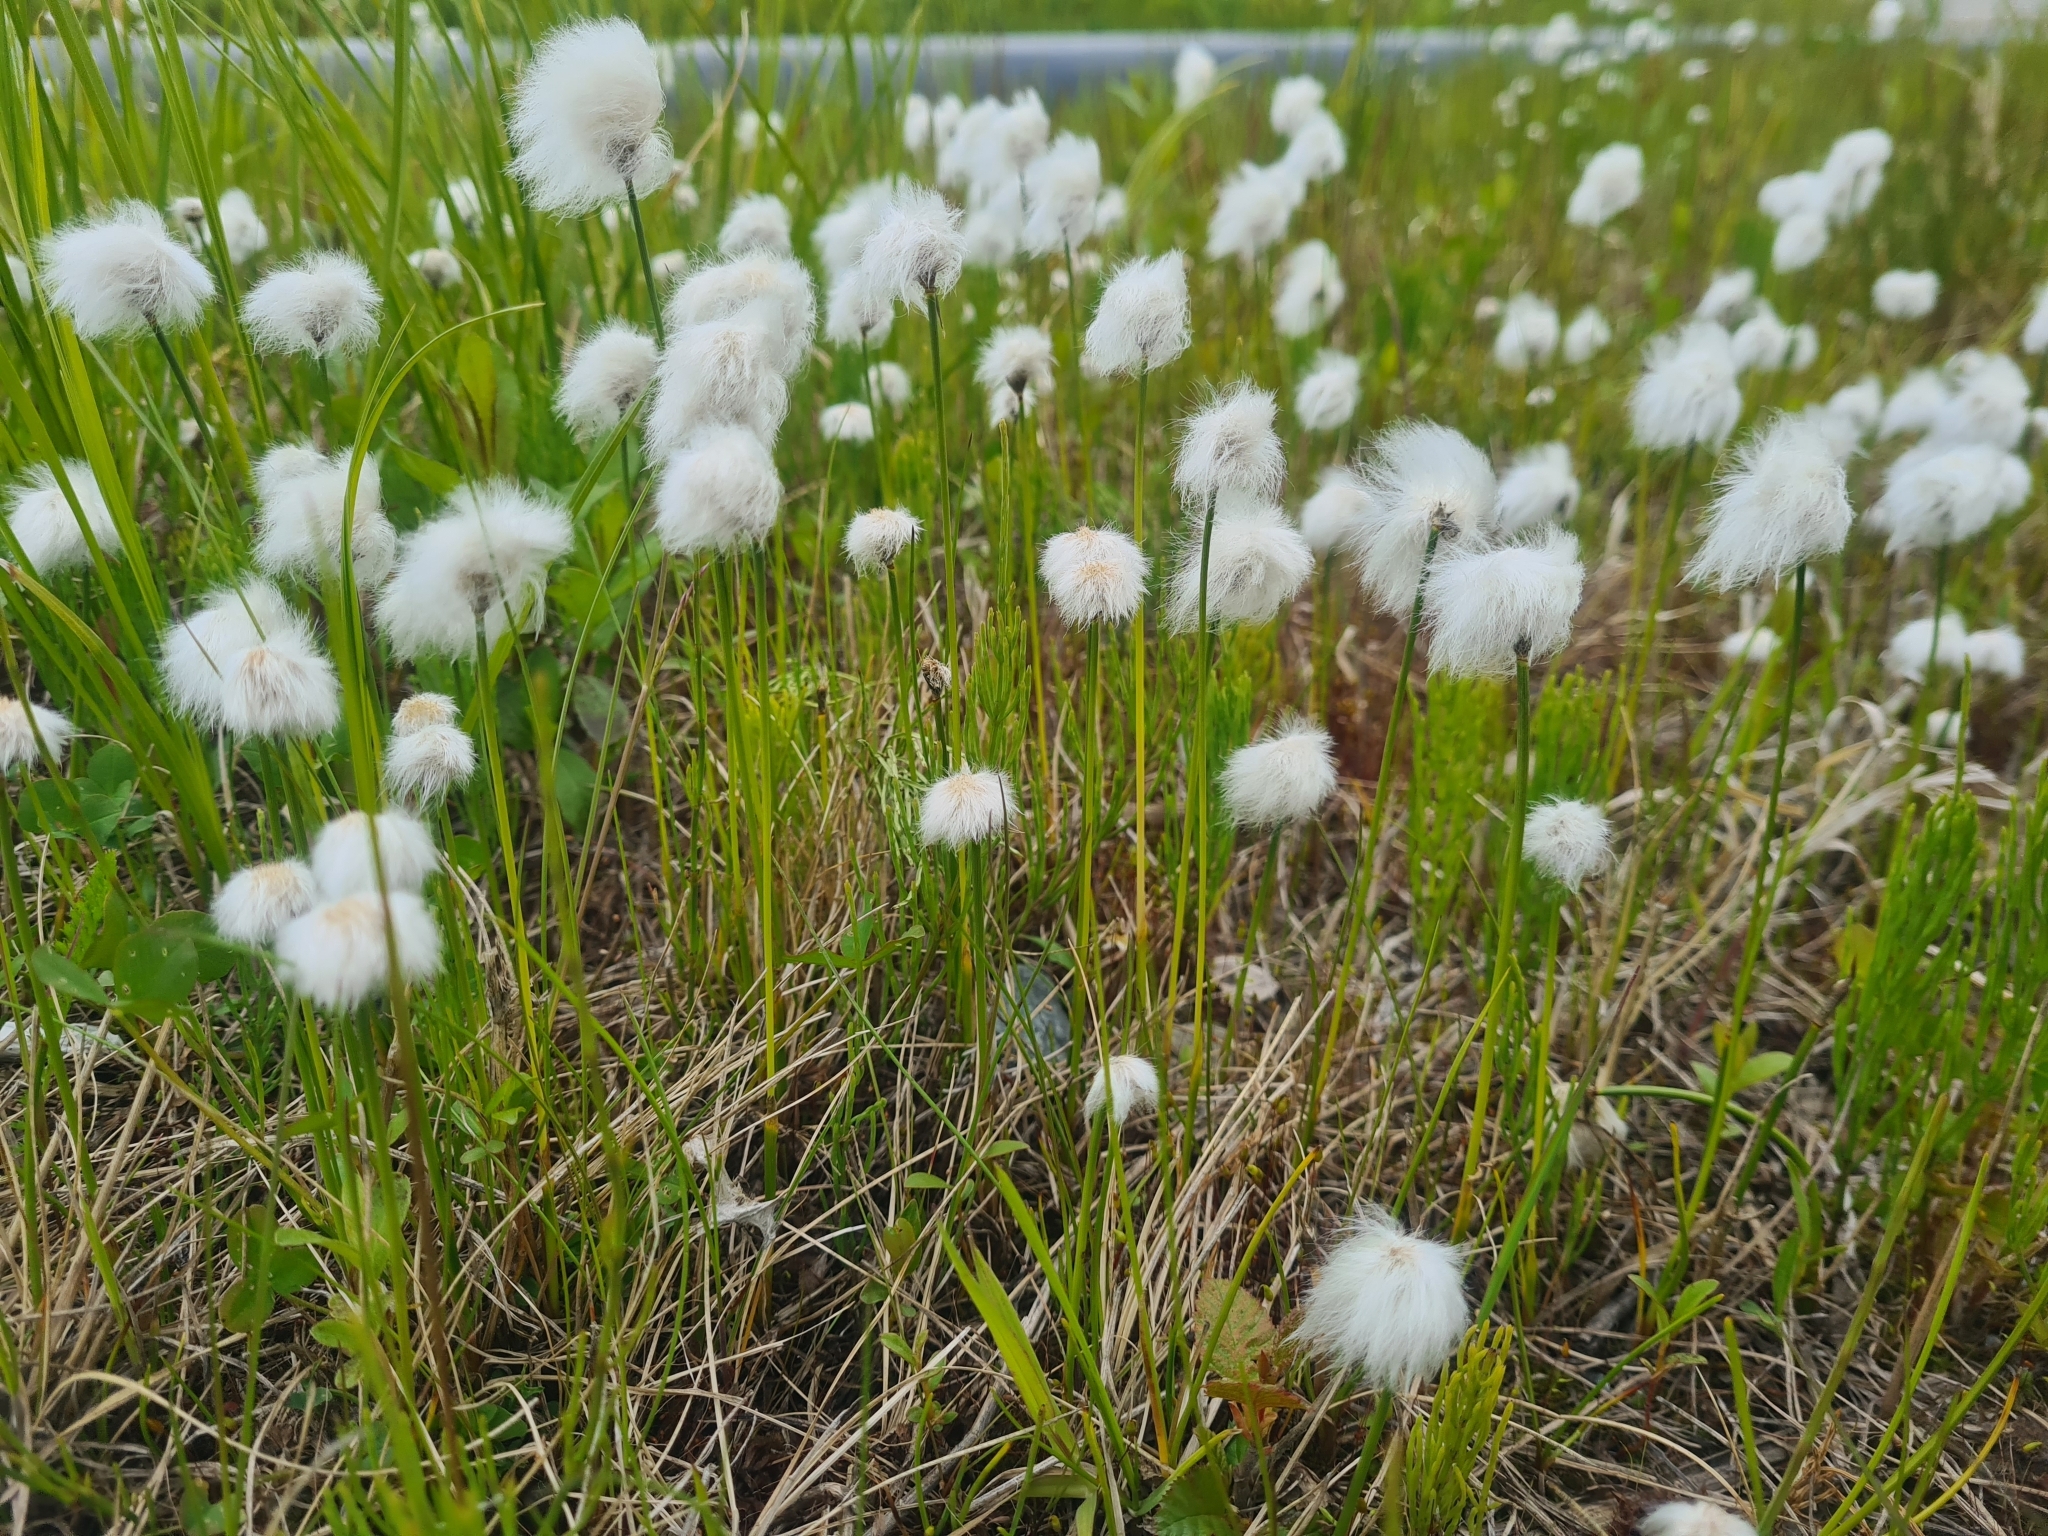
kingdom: Plantae
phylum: Tracheophyta
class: Liliopsida
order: Poales
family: Cyperaceae
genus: Eriophorum
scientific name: Eriophorum scheuchzeri
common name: Scheuchzer's cottongrass
